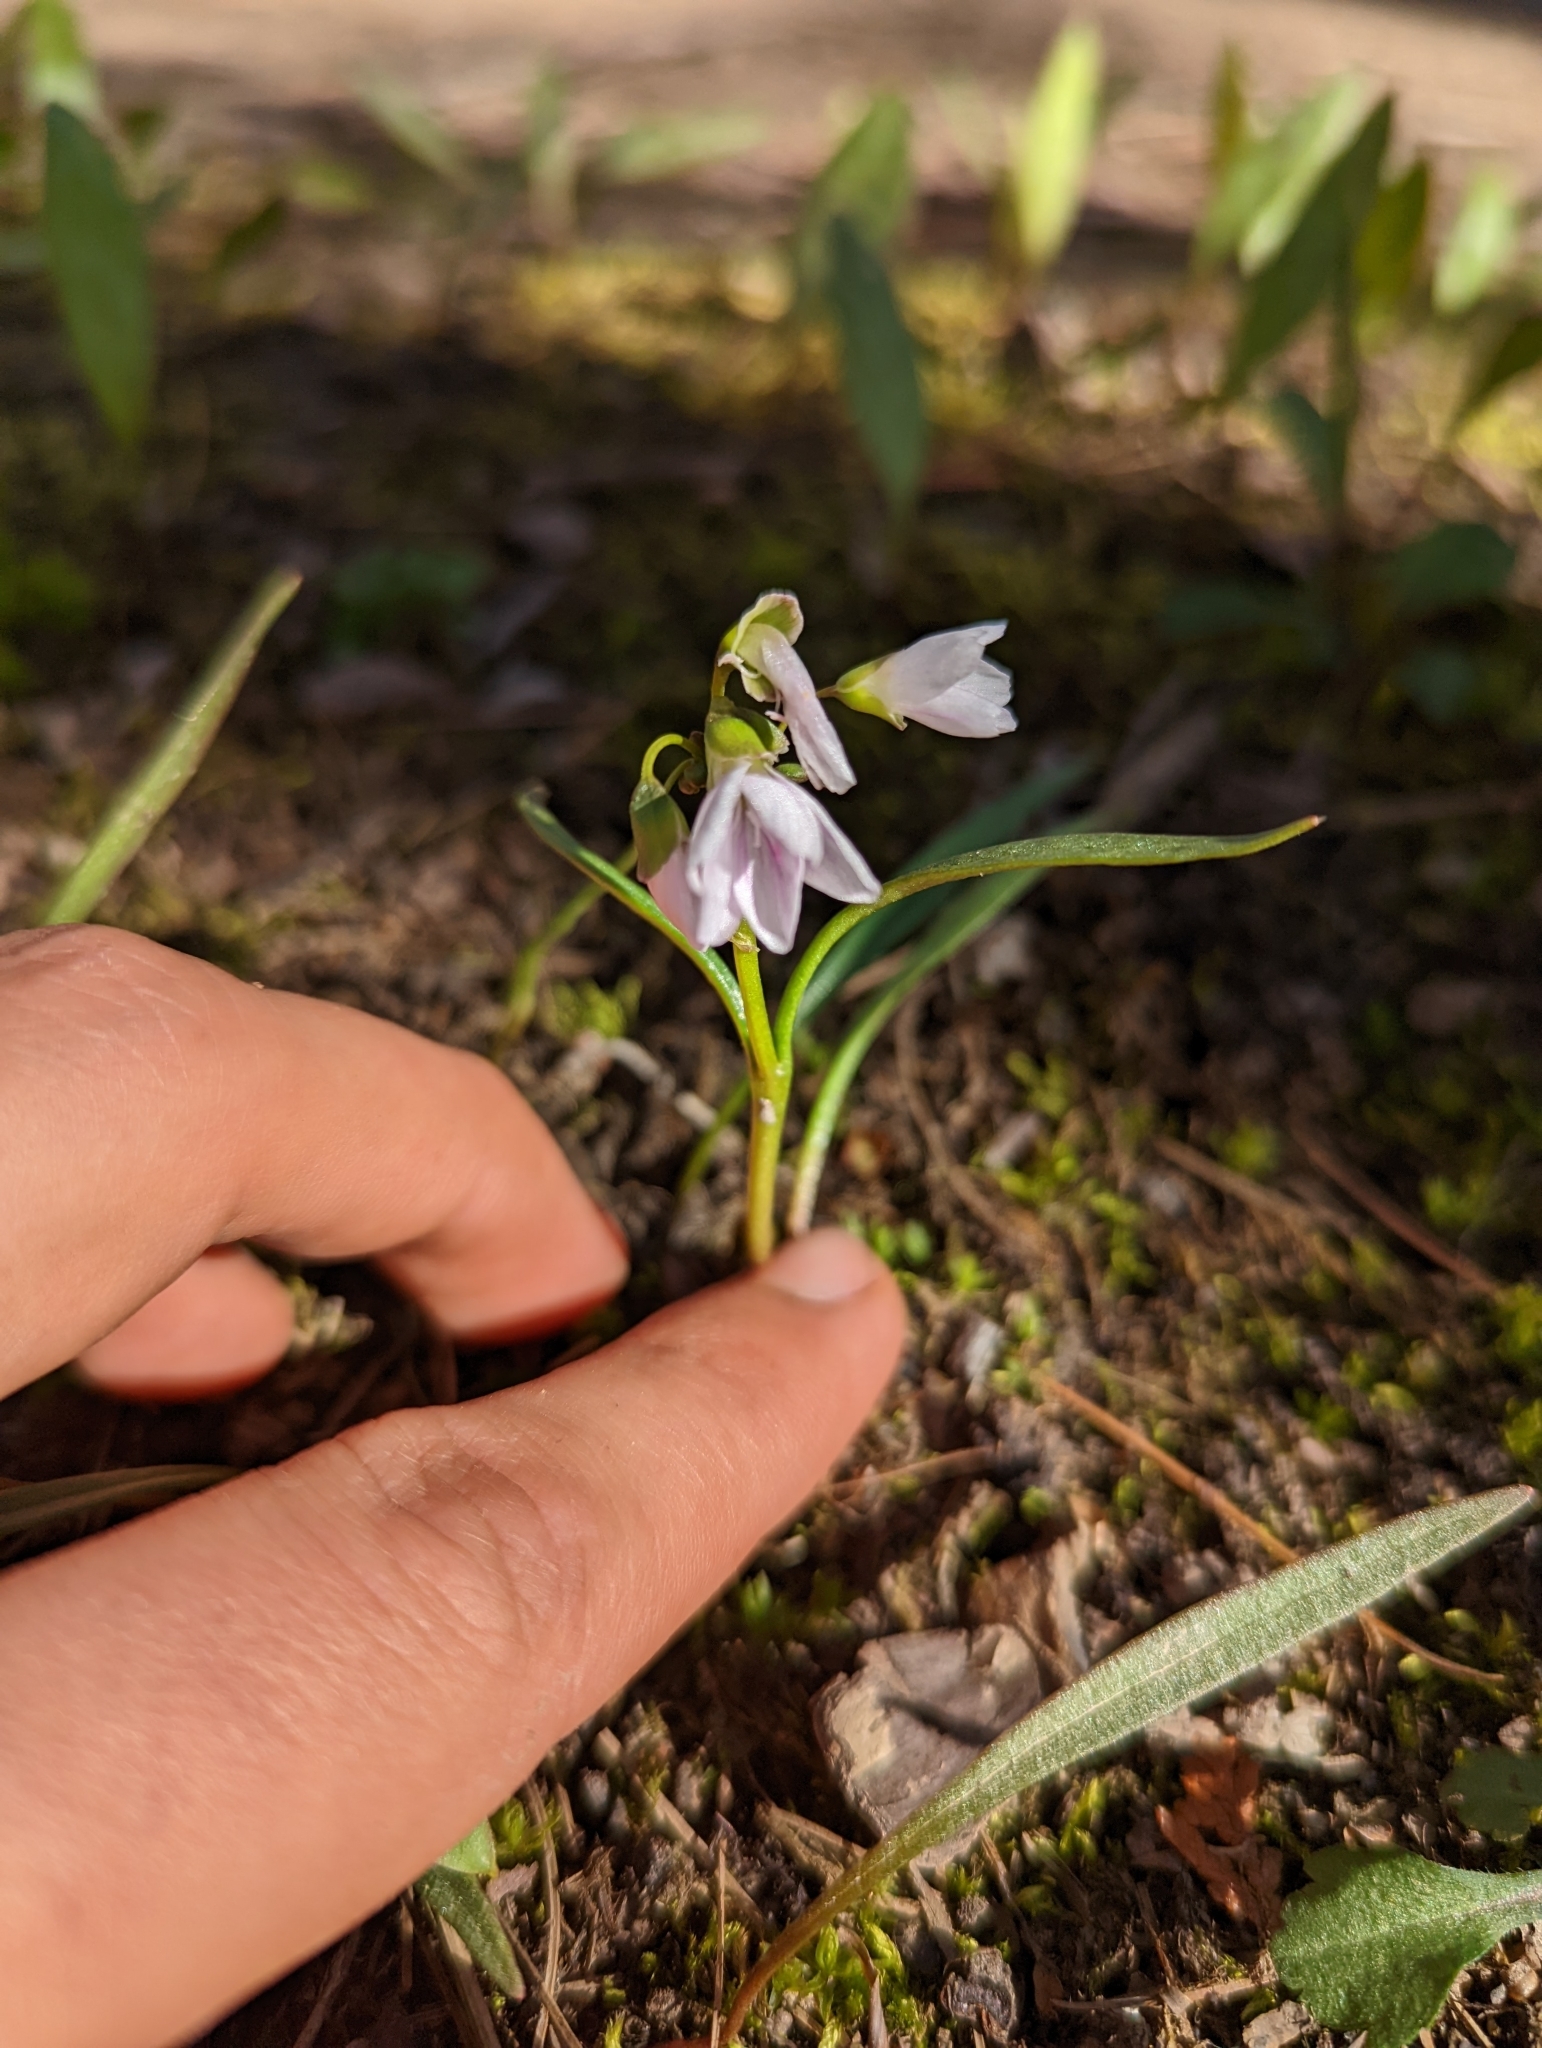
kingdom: Plantae
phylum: Tracheophyta
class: Magnoliopsida
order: Caryophyllales
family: Montiaceae
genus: Claytonia
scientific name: Claytonia virginica
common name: Virginia springbeauty
